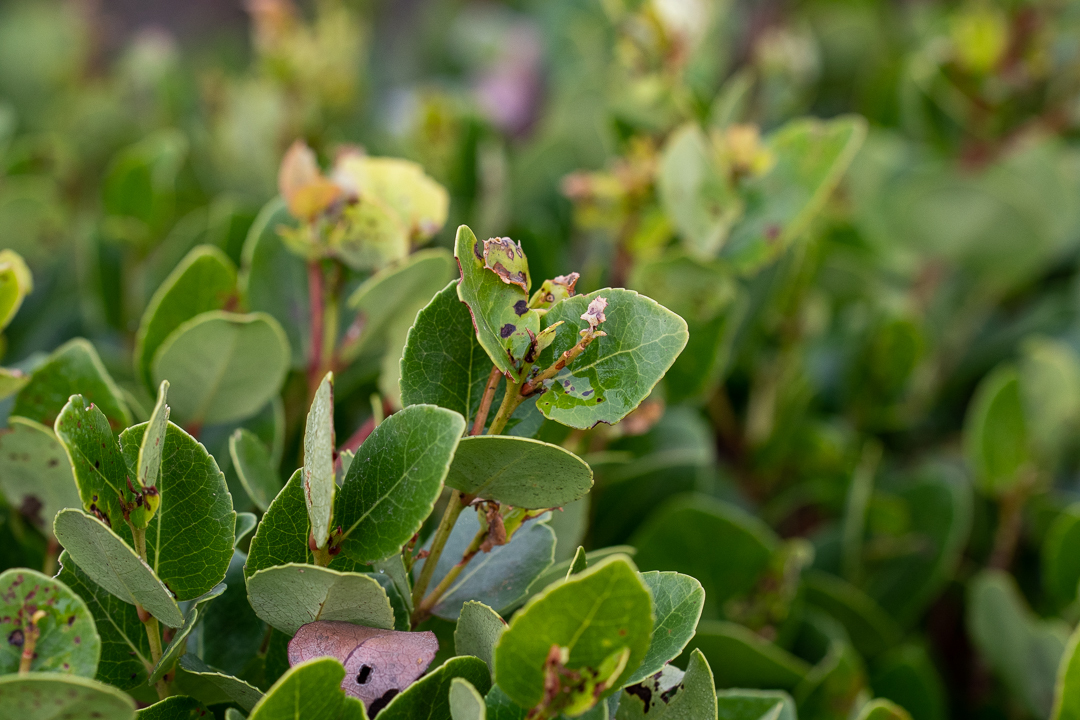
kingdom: Plantae
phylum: Tracheophyta
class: Magnoliopsida
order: Celastrales
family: Celastraceae
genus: Cassine
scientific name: Cassine peragua
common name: Cape saffron
